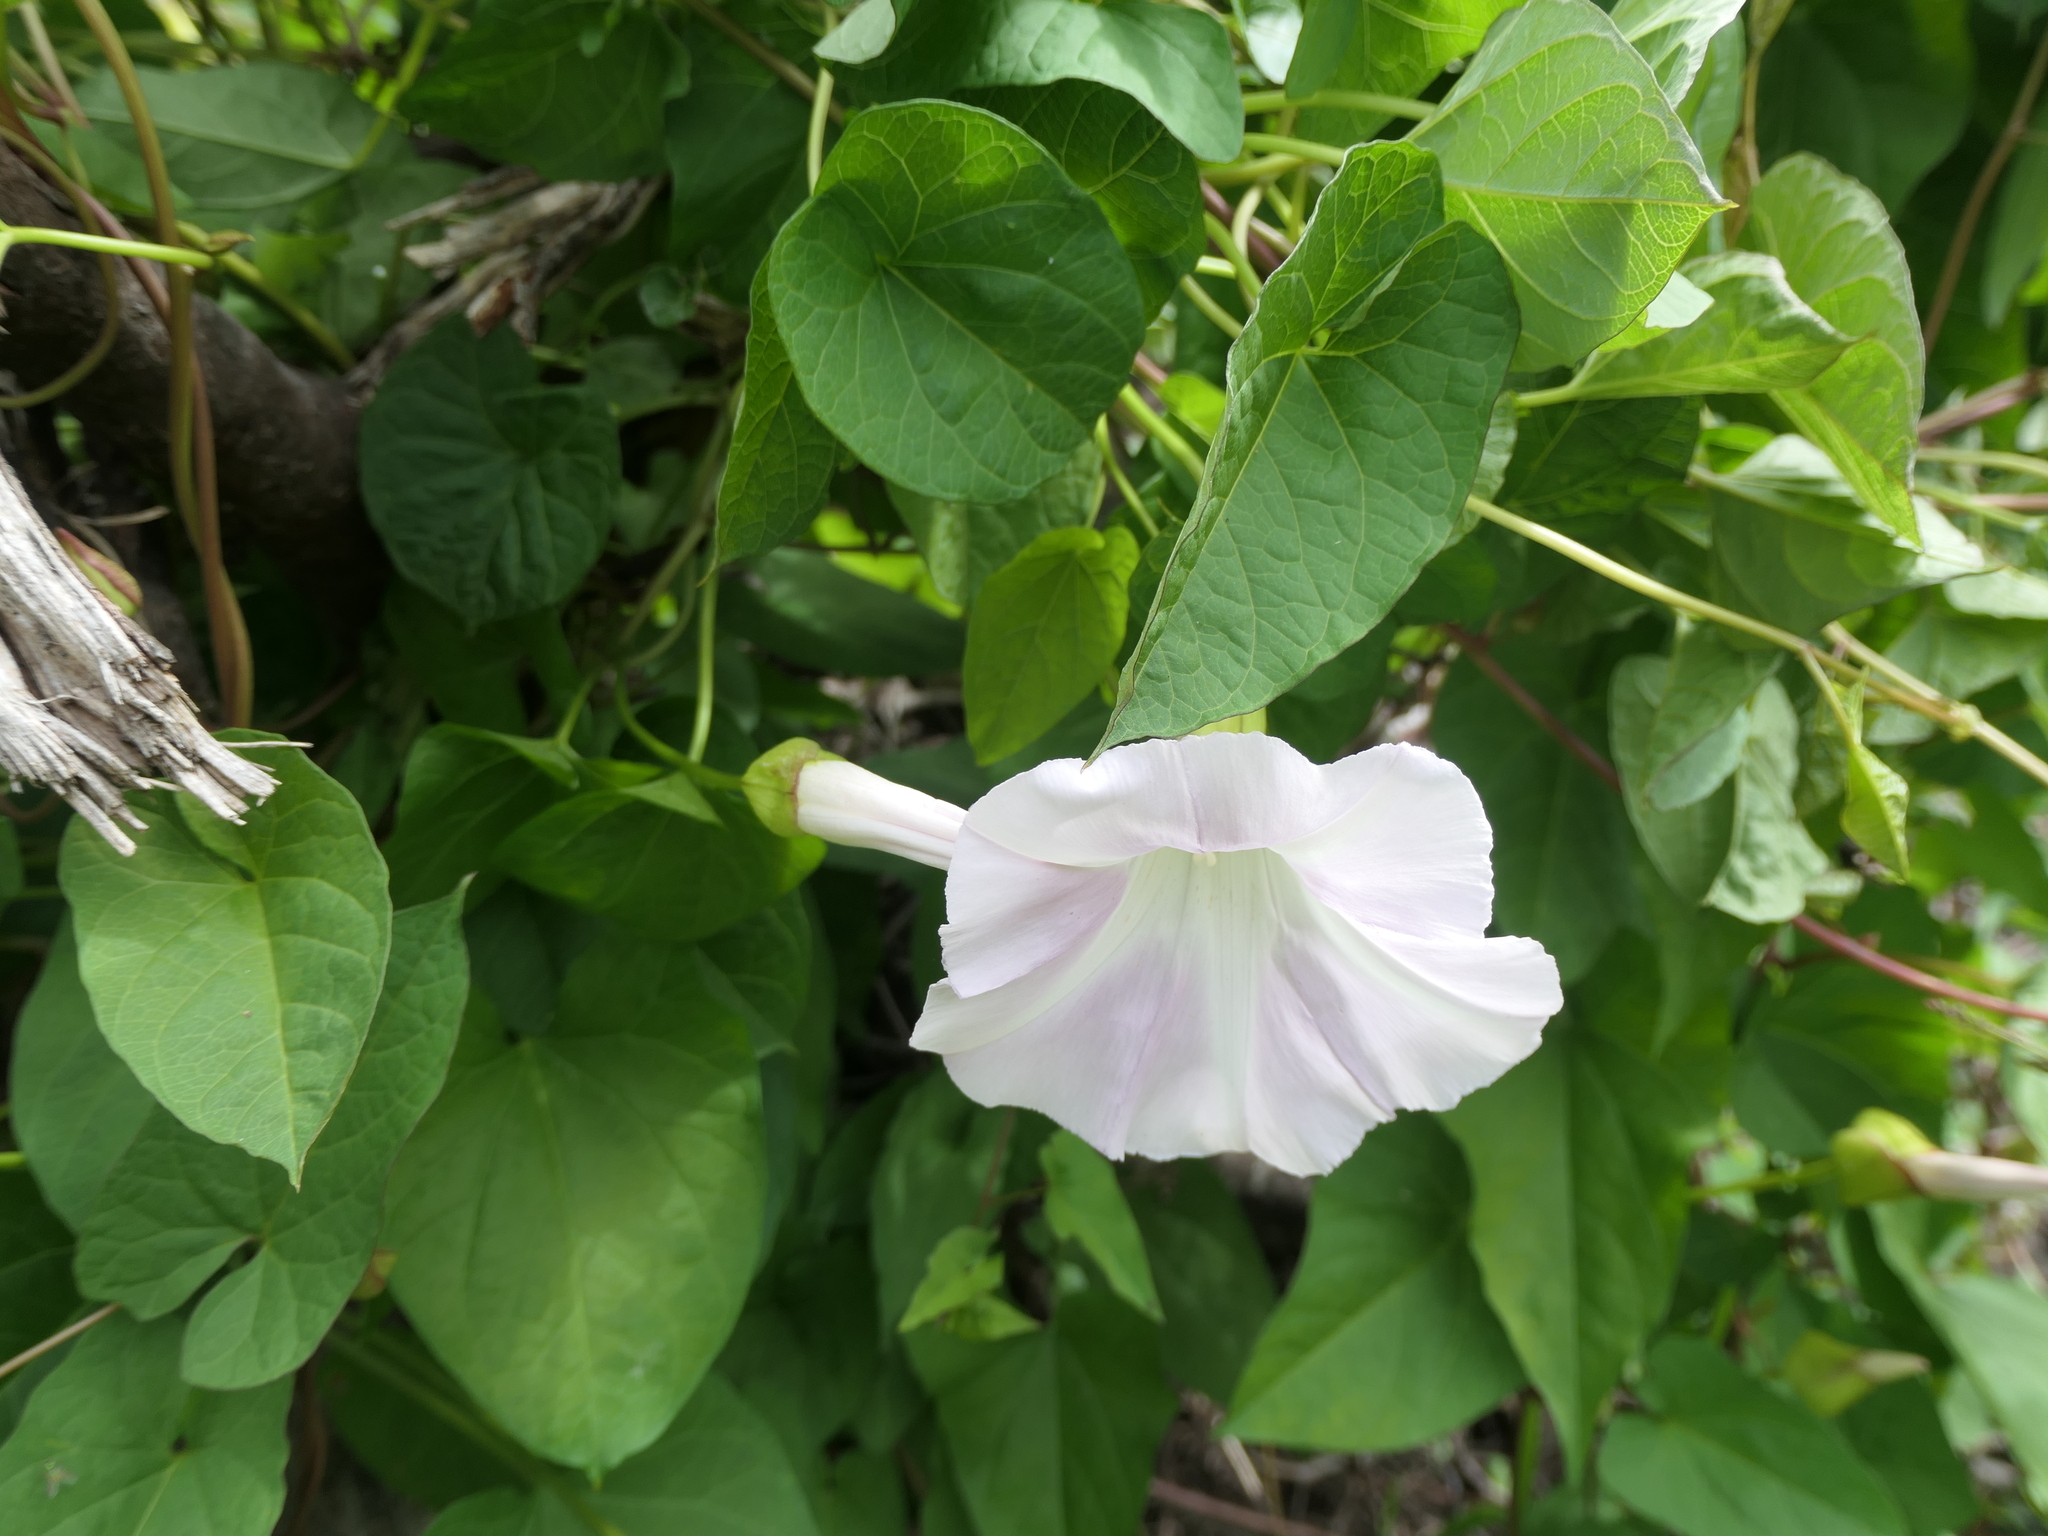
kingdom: Plantae
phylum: Tracheophyta
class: Magnoliopsida
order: Solanales
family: Convolvulaceae
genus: Calystegia
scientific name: Calystegia sepium
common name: Hedge bindweed
